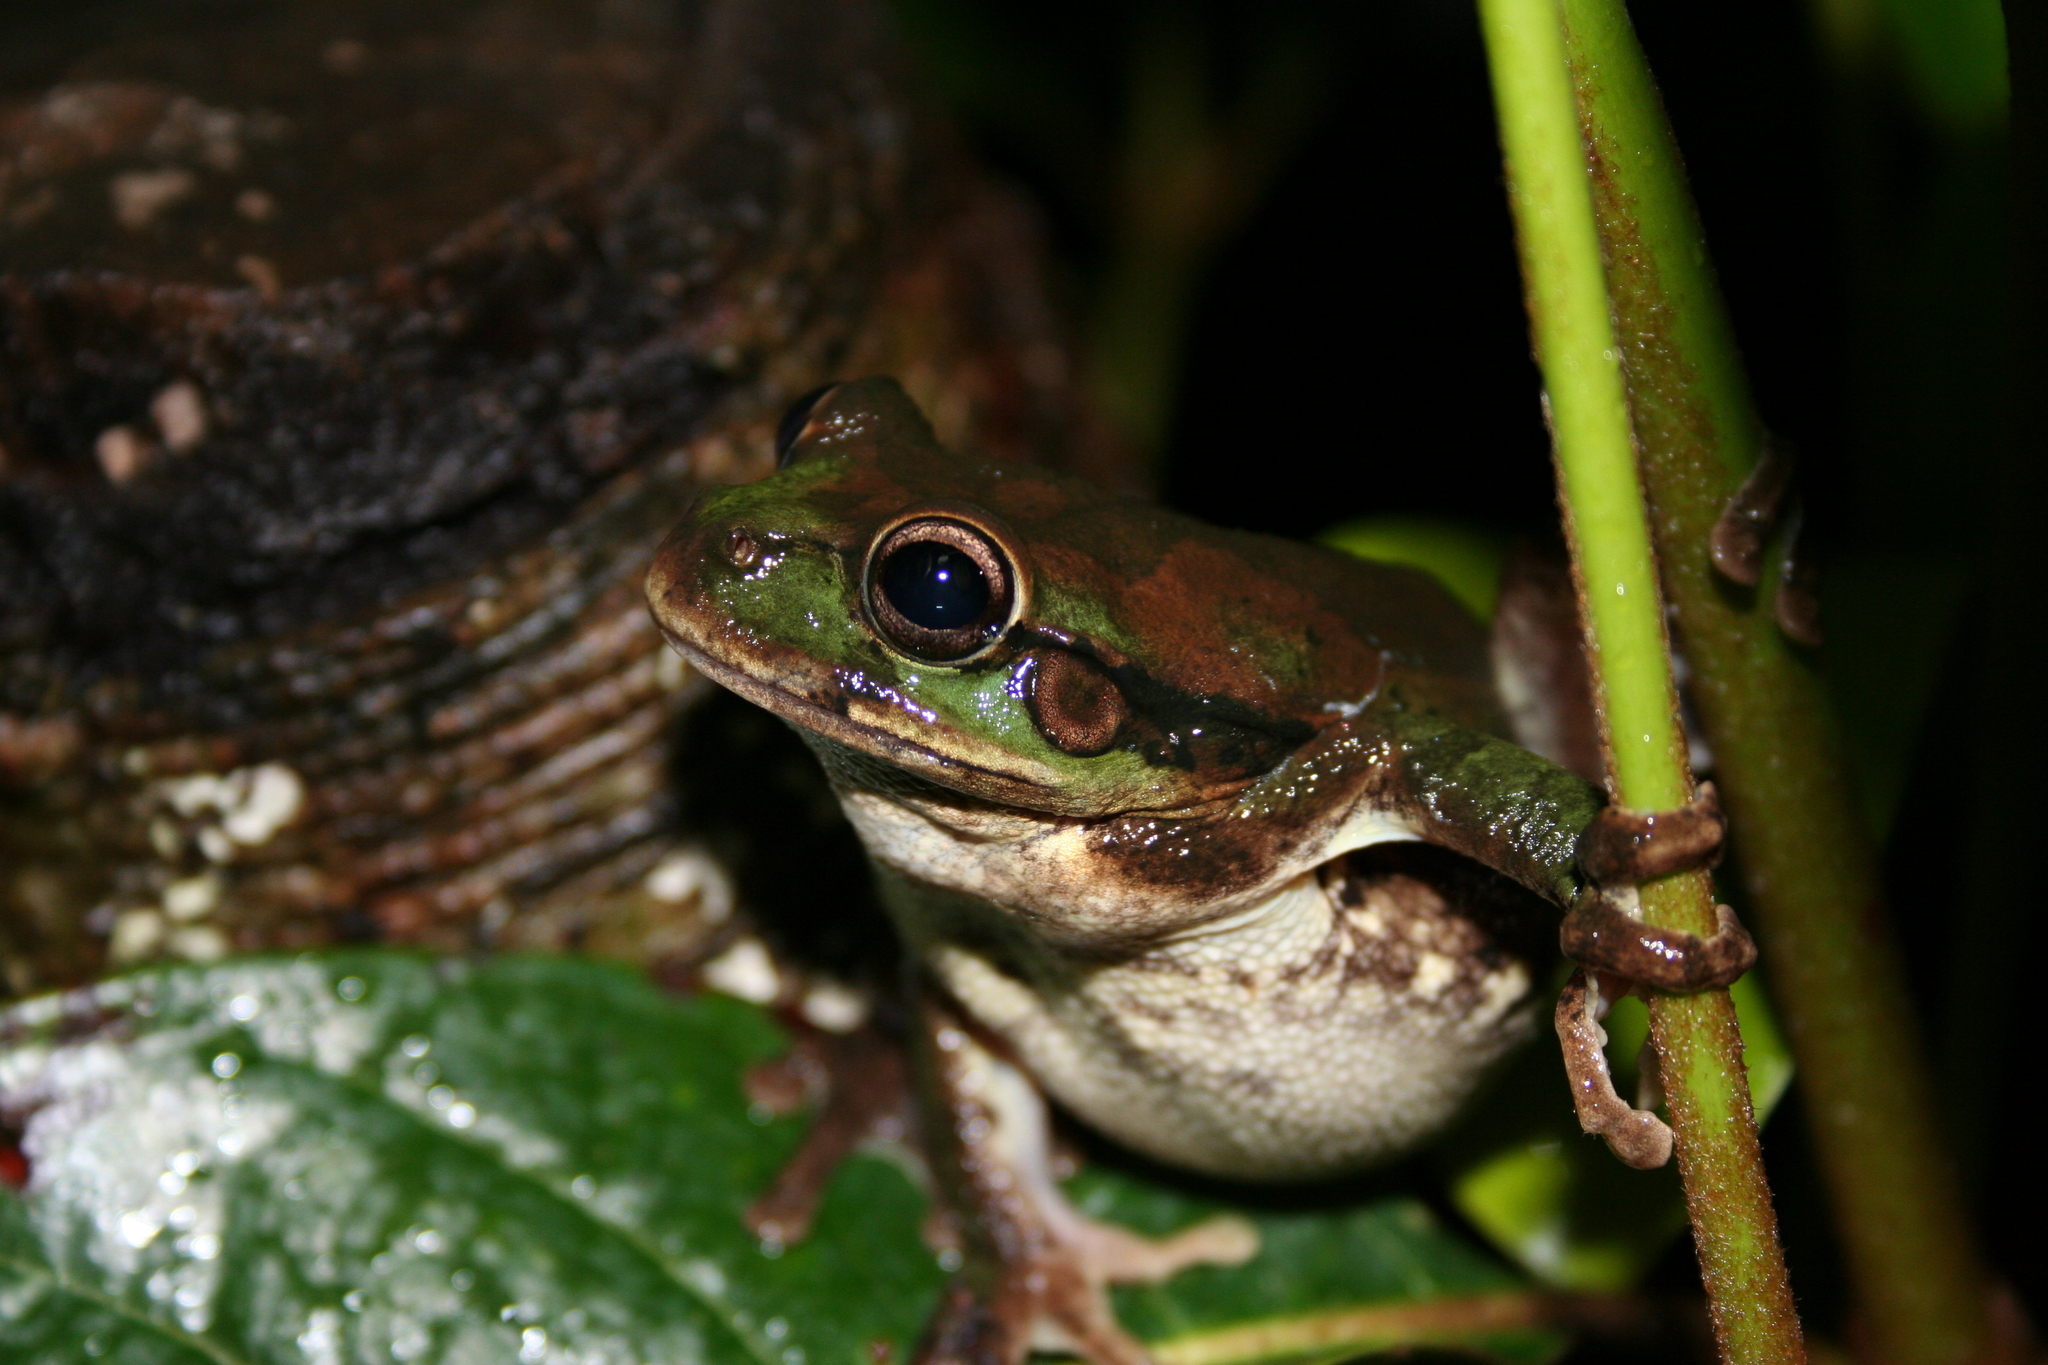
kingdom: Animalia
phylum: Chordata
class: Amphibia
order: Anura
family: Hylidae
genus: Smilisca
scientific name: Smilisca baudinii
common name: Mexican smilisca
